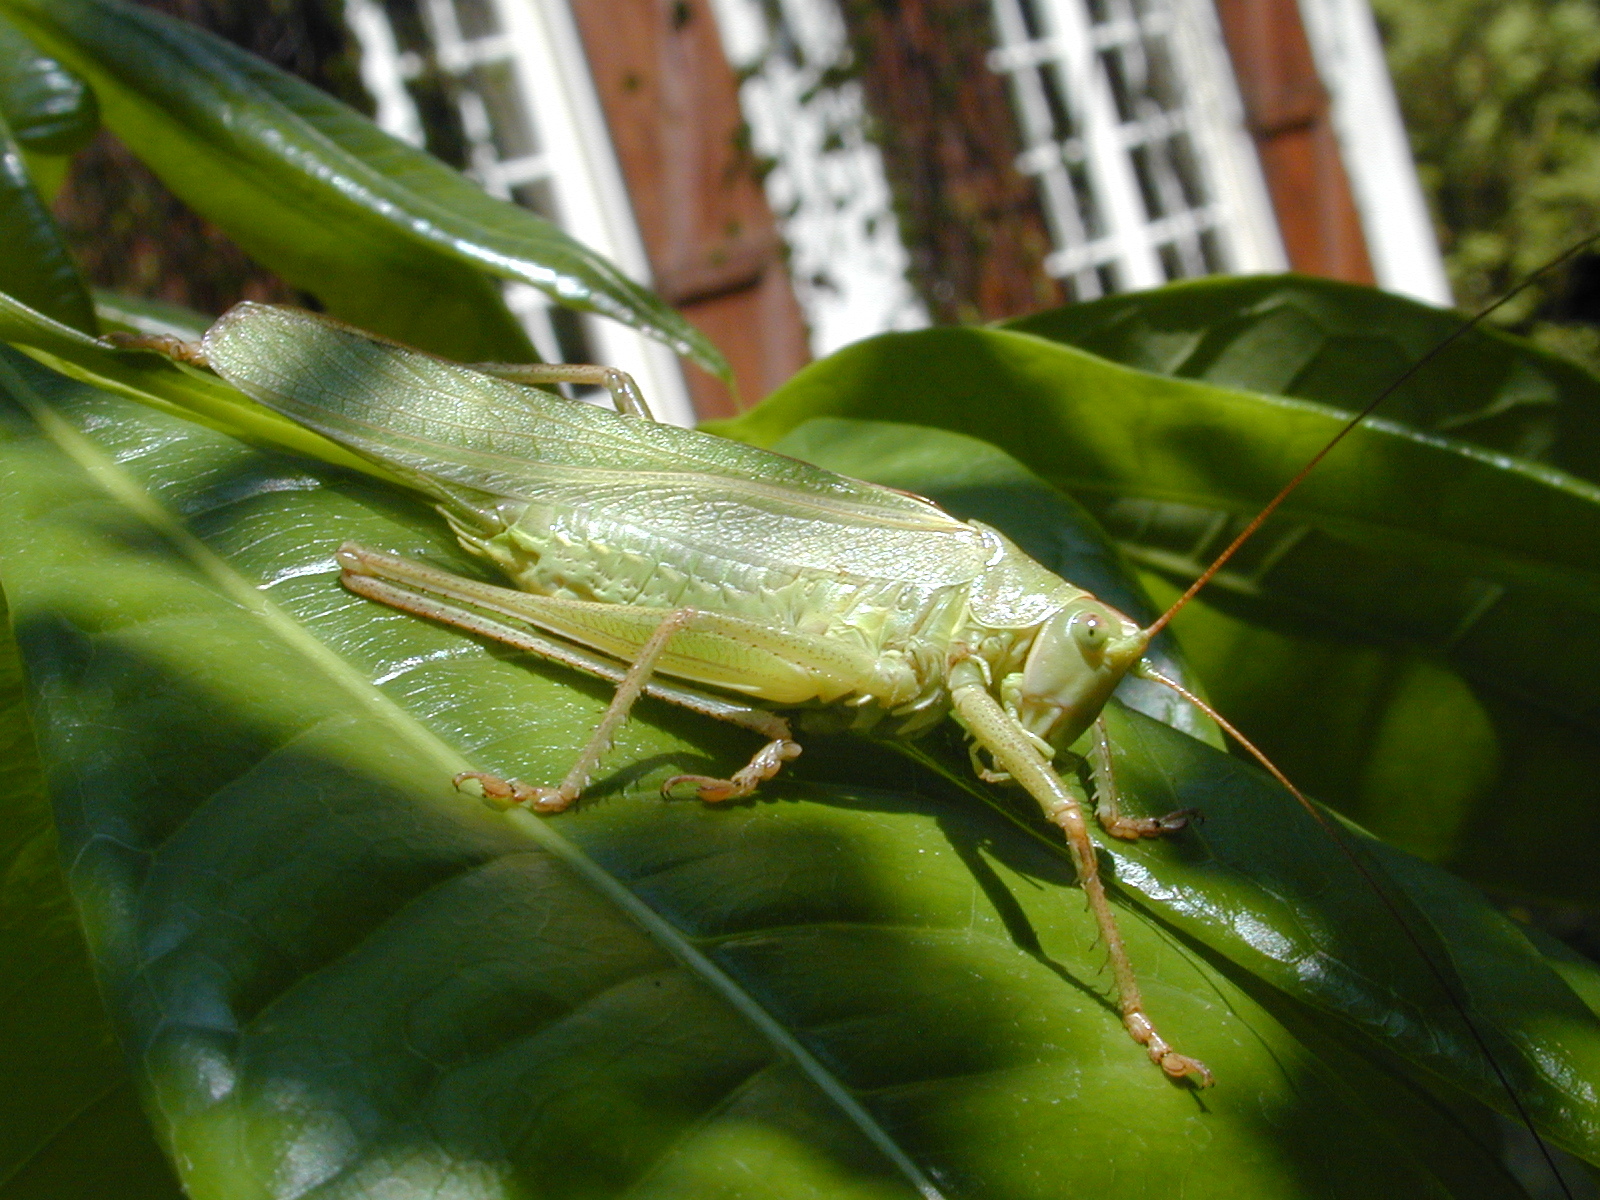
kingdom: Animalia
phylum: Arthropoda
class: Insecta
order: Orthoptera
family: Tettigoniidae
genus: Tettigonia
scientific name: Tettigonia viridissima
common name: Great green bush-cricket
